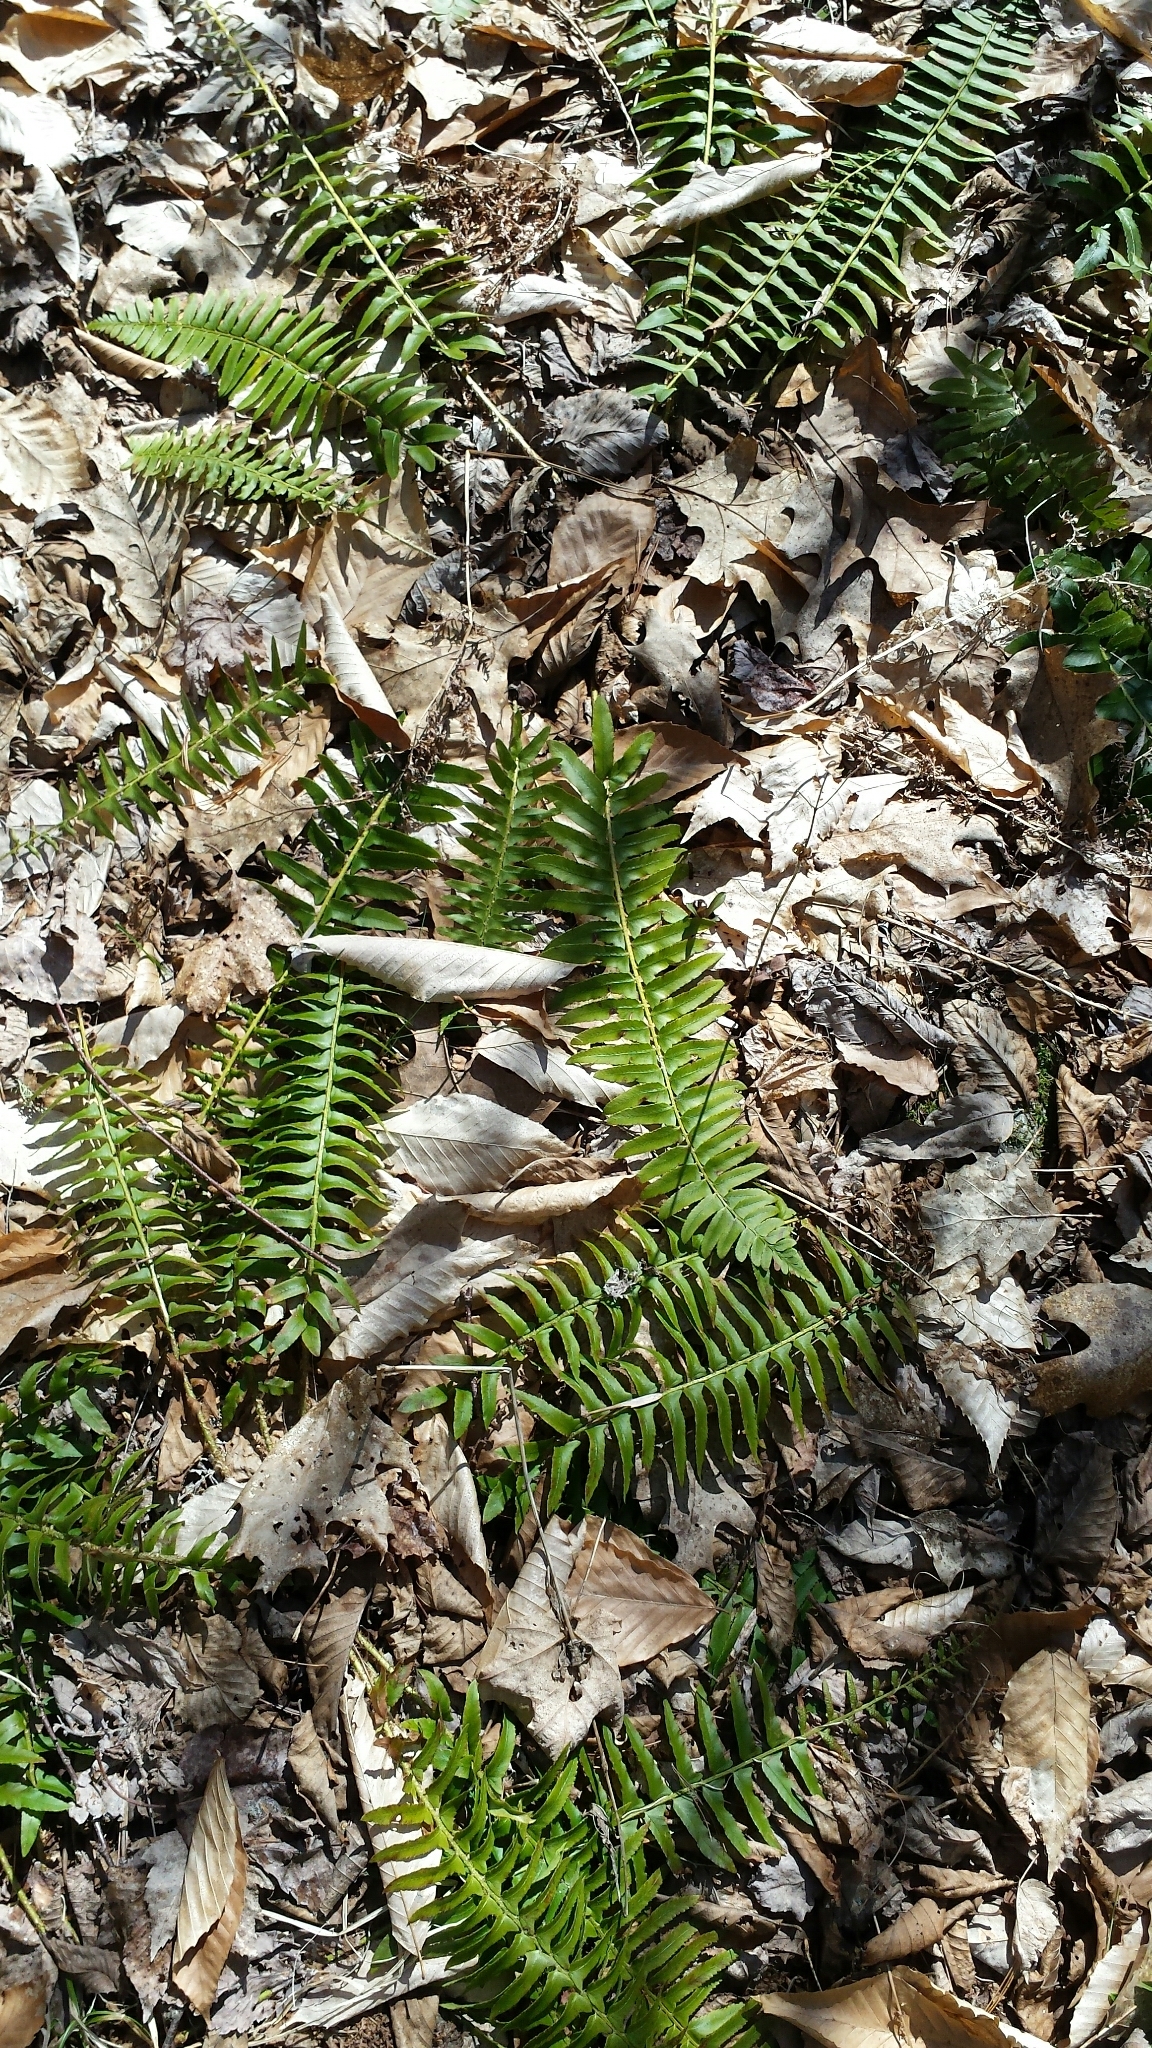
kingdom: Plantae
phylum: Tracheophyta
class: Polypodiopsida
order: Polypodiales
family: Dryopteridaceae
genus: Polystichum
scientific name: Polystichum acrostichoides
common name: Christmas fern
